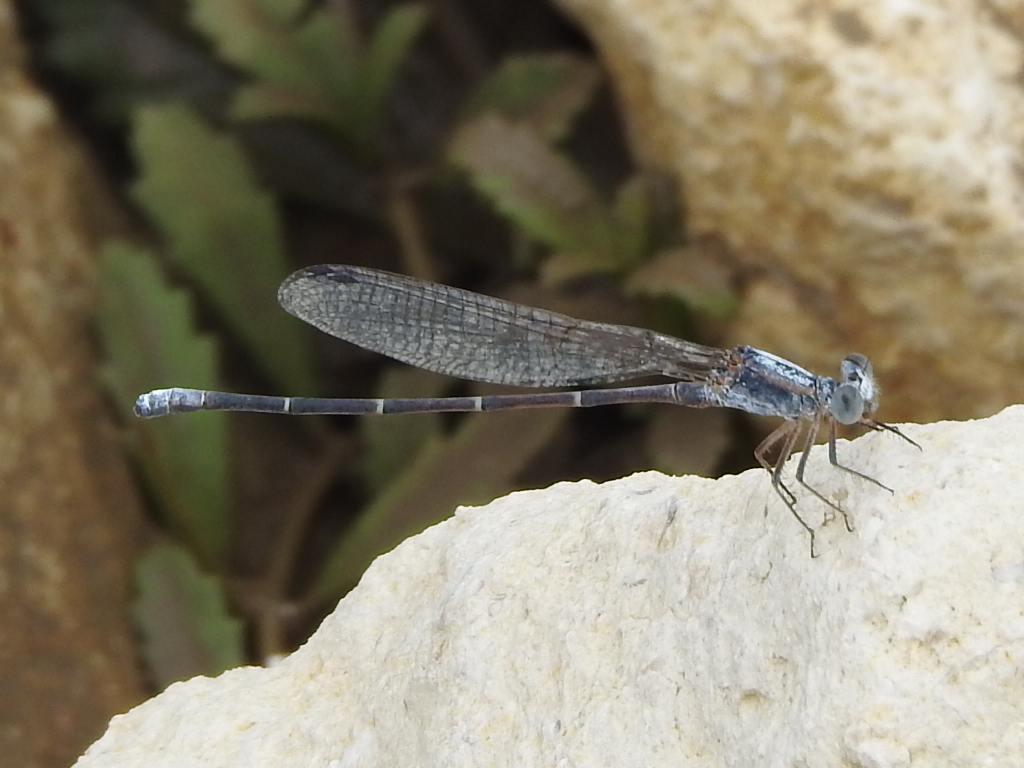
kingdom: Animalia
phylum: Arthropoda
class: Insecta
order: Odonata
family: Coenagrionidae
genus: Argia
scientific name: Argia moesta
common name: Powdered dancer
